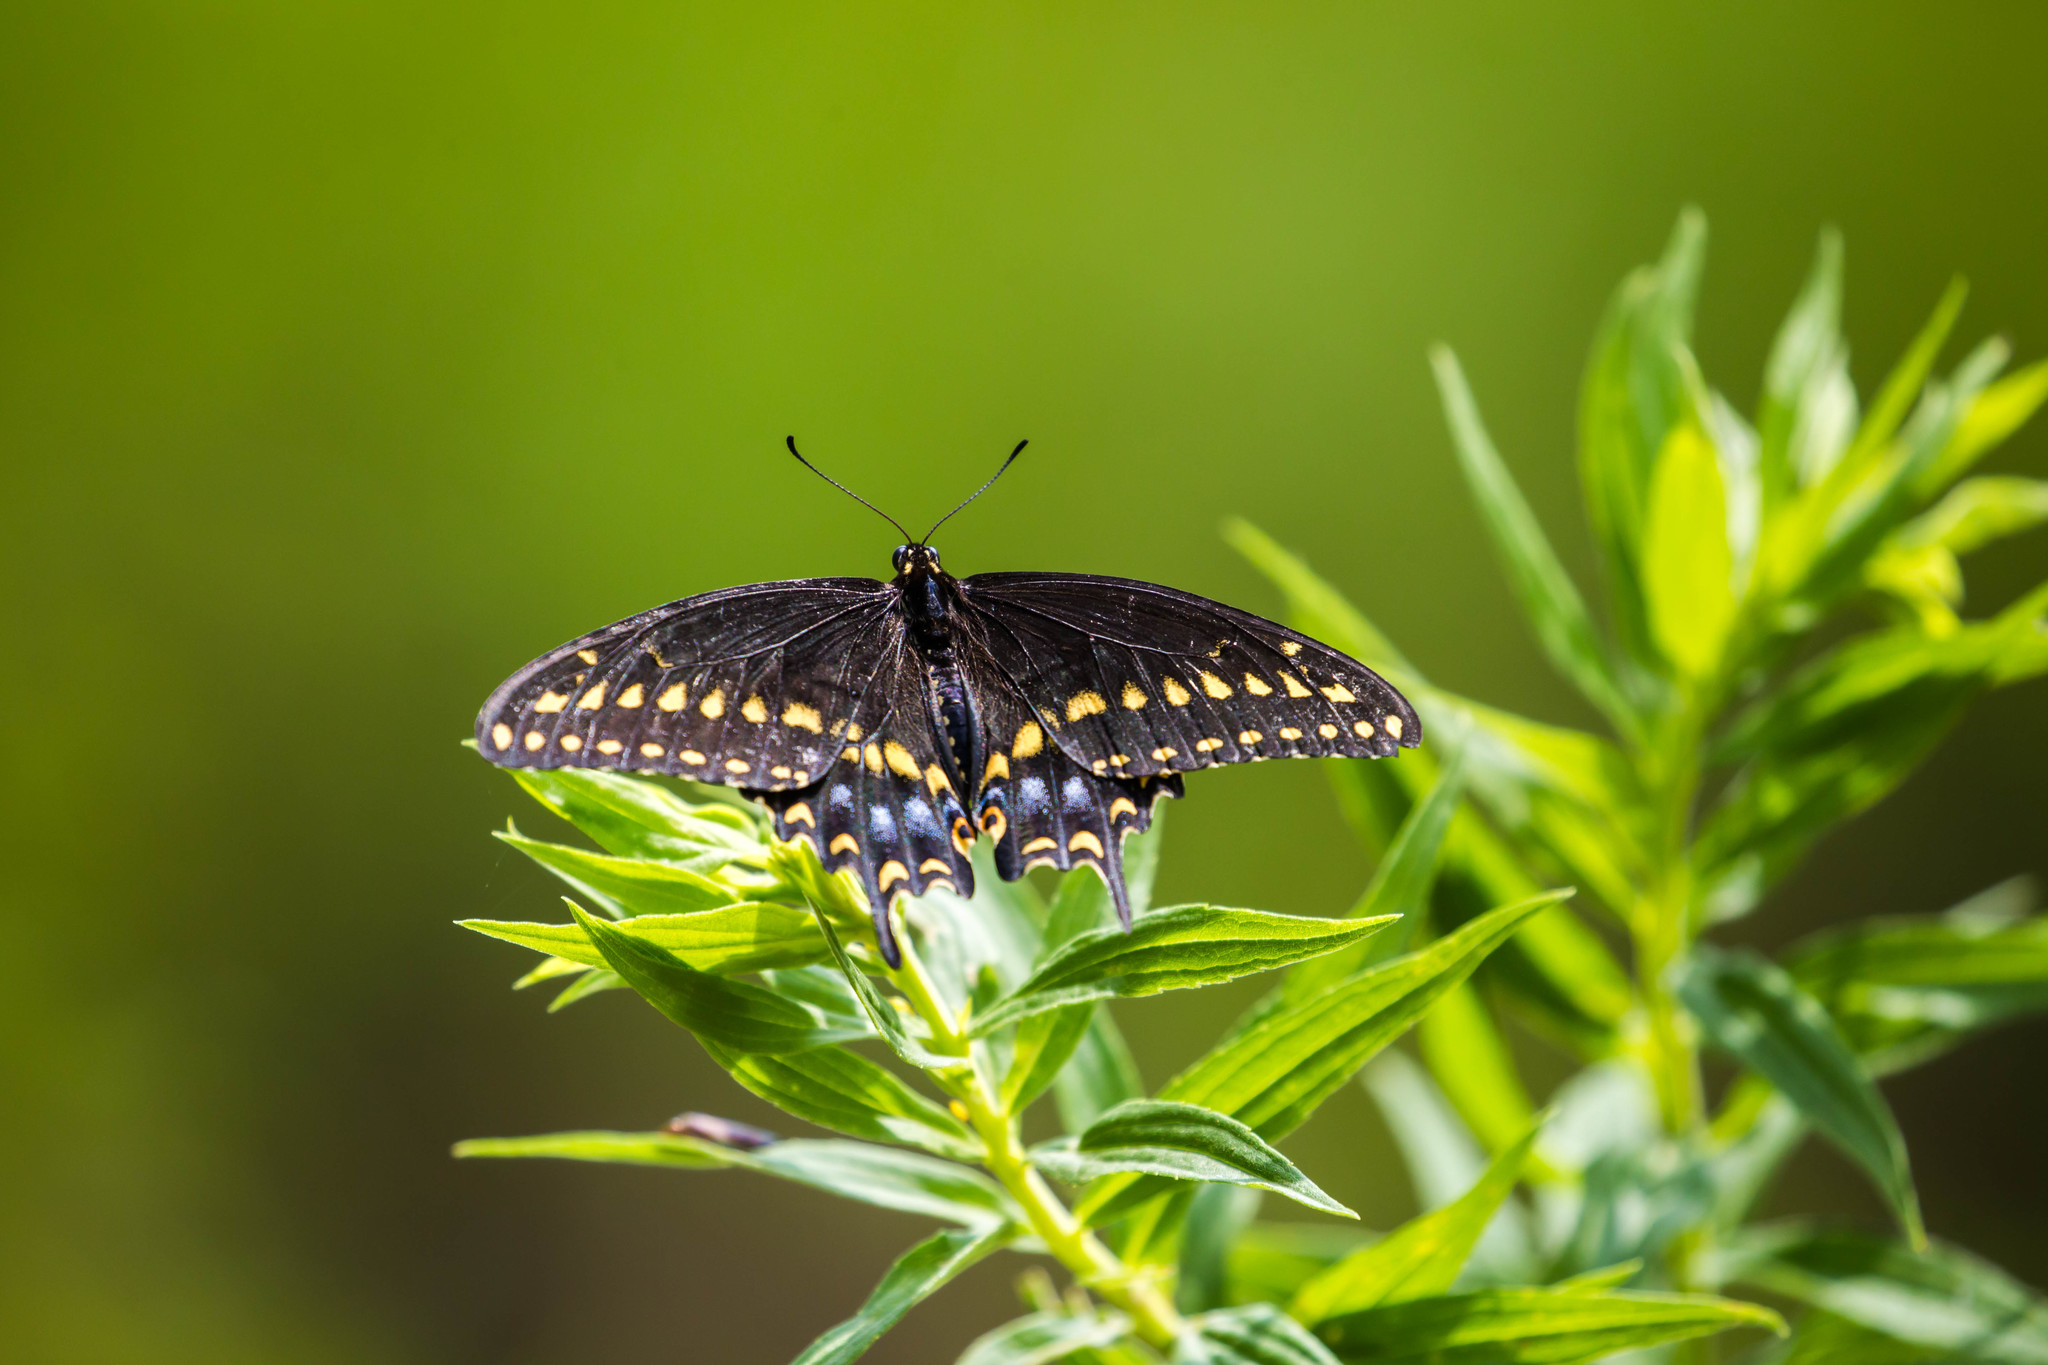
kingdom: Animalia
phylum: Arthropoda
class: Insecta
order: Lepidoptera
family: Papilionidae
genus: Papilio
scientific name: Papilio polyxenes
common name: Black swallowtail
